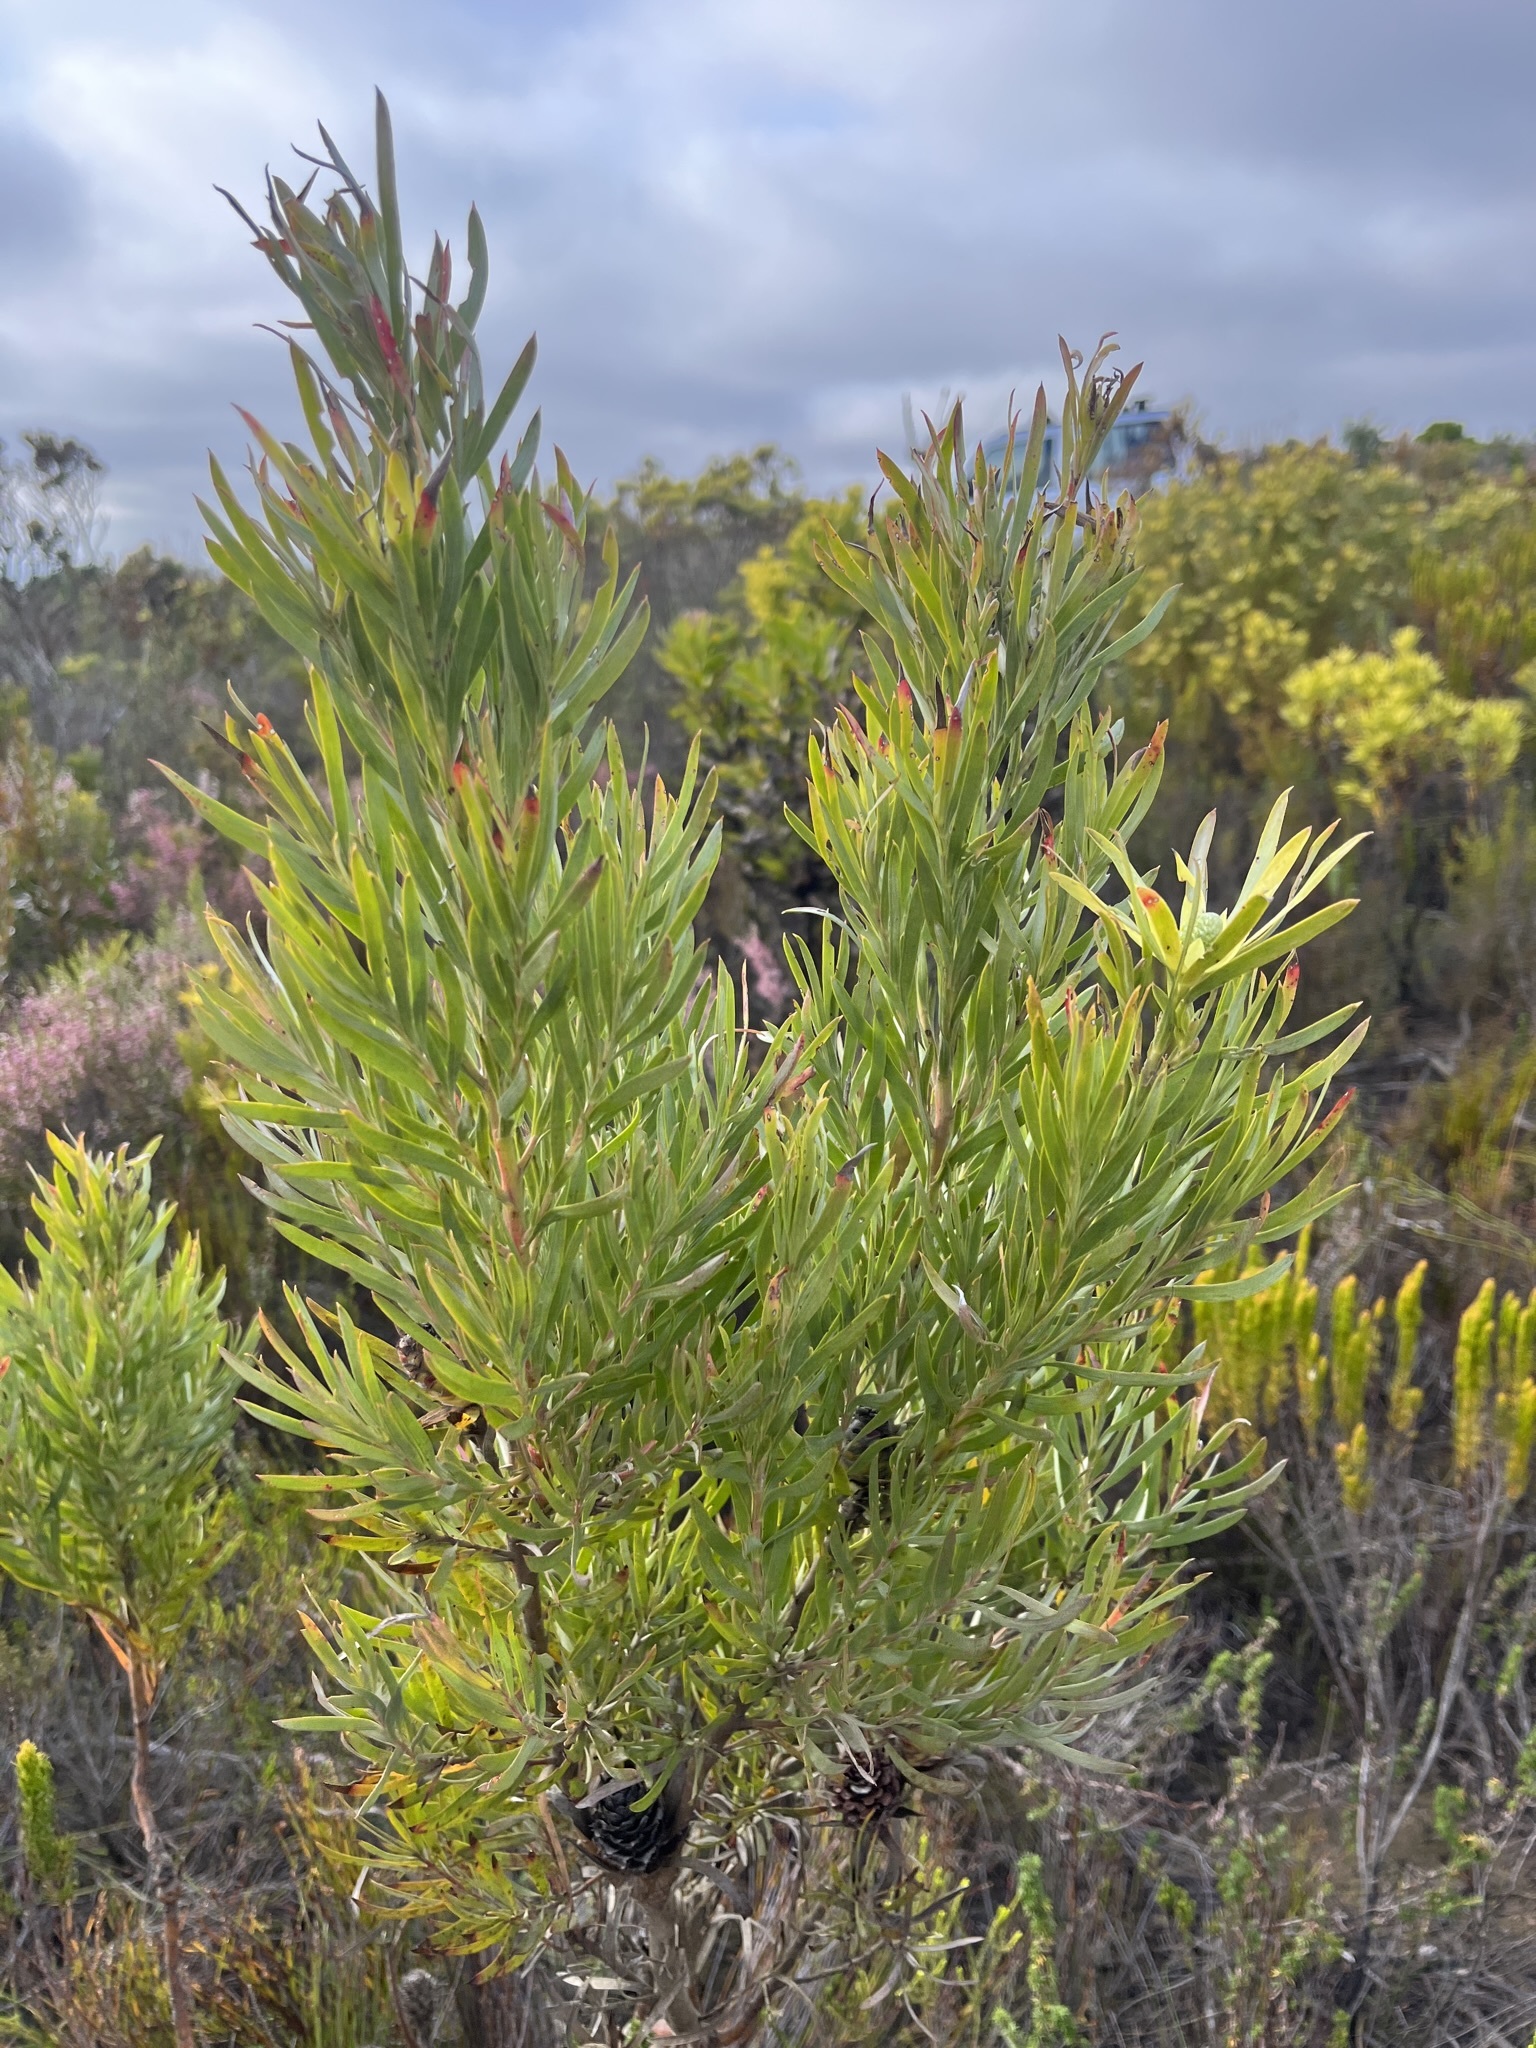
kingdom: Plantae
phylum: Tracheophyta
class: Magnoliopsida
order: Proteales
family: Proteaceae
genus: Leucadendron
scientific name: Leucadendron xanthoconus
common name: Sickle-leaf conebush
